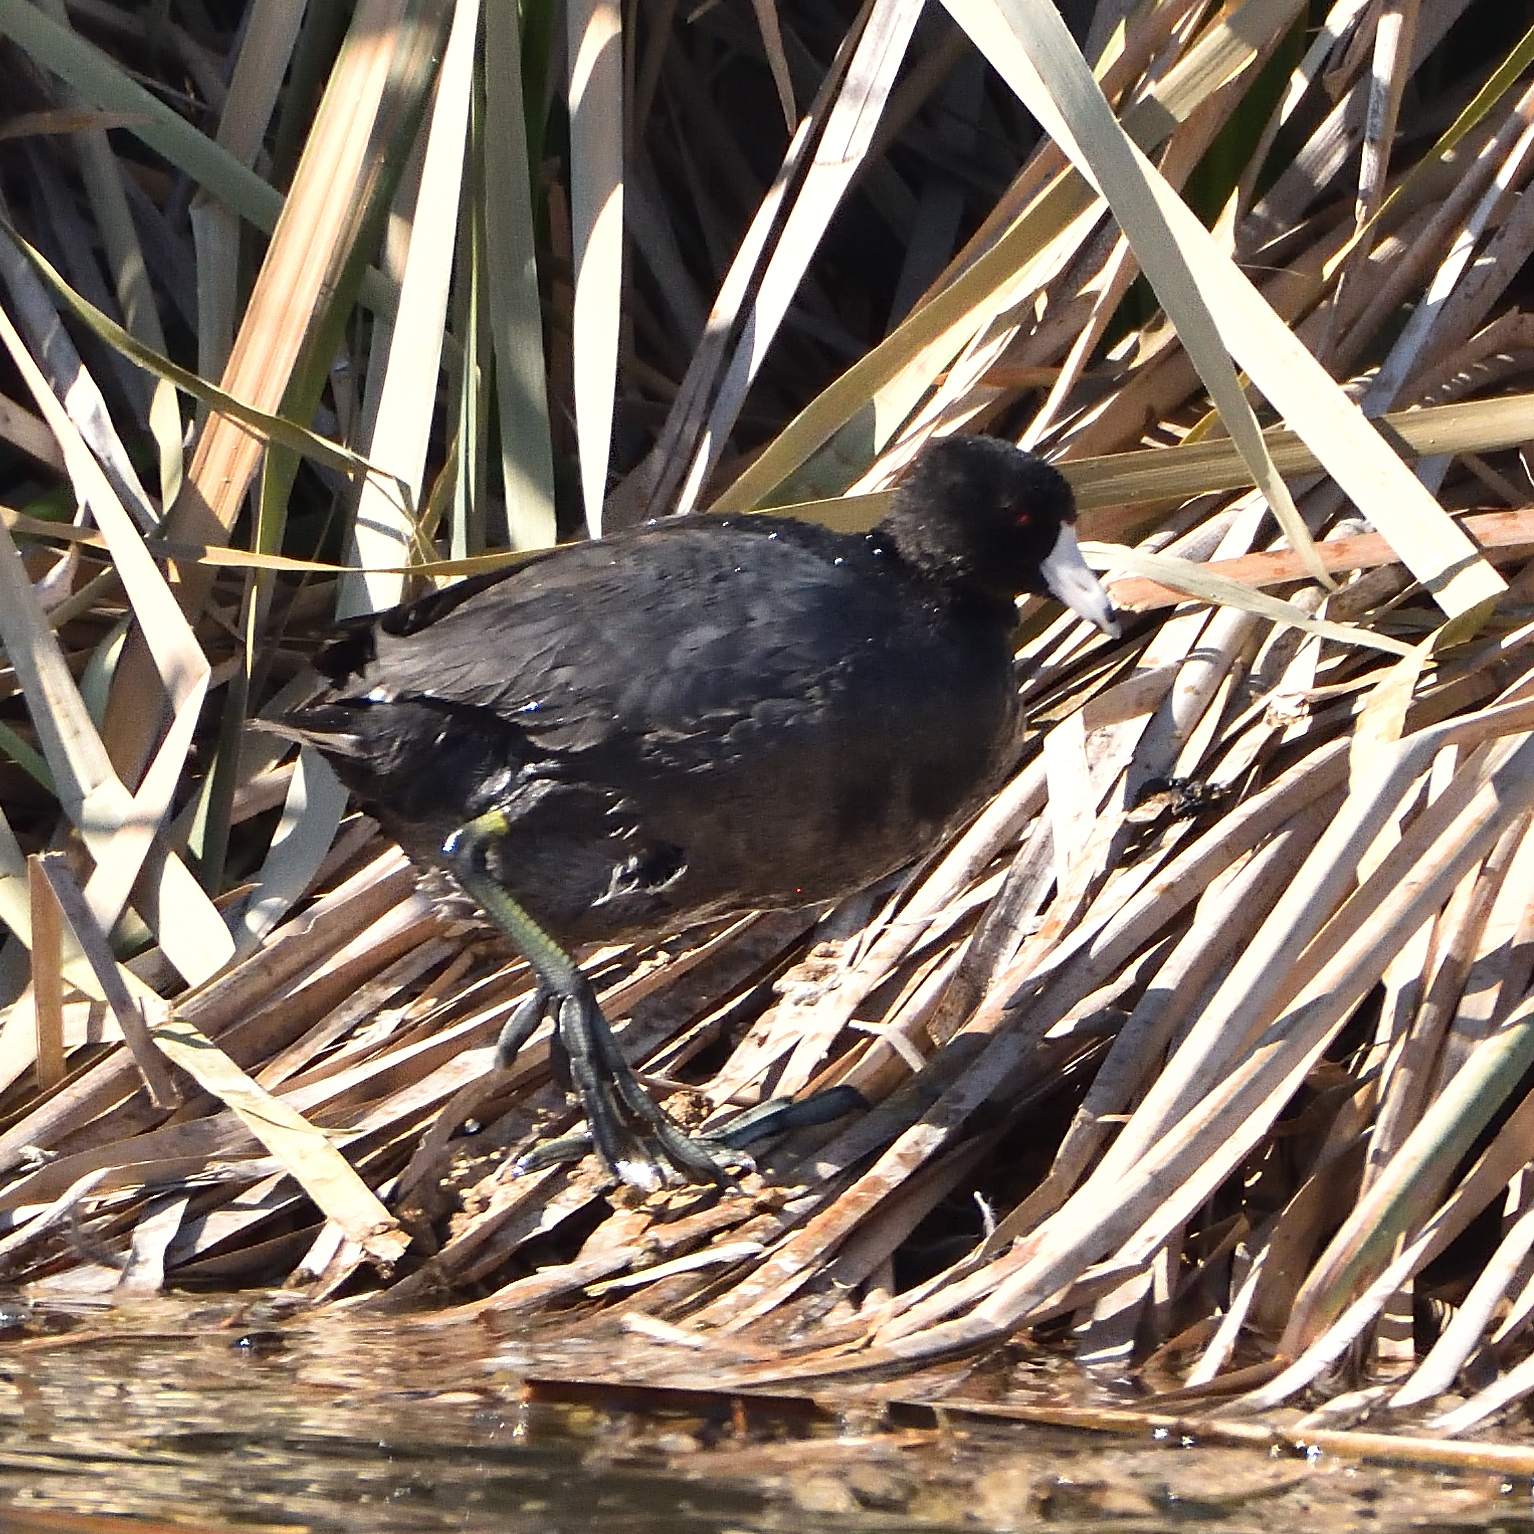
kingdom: Animalia
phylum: Chordata
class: Aves
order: Gruiformes
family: Rallidae
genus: Fulica
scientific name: Fulica americana
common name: American coot
